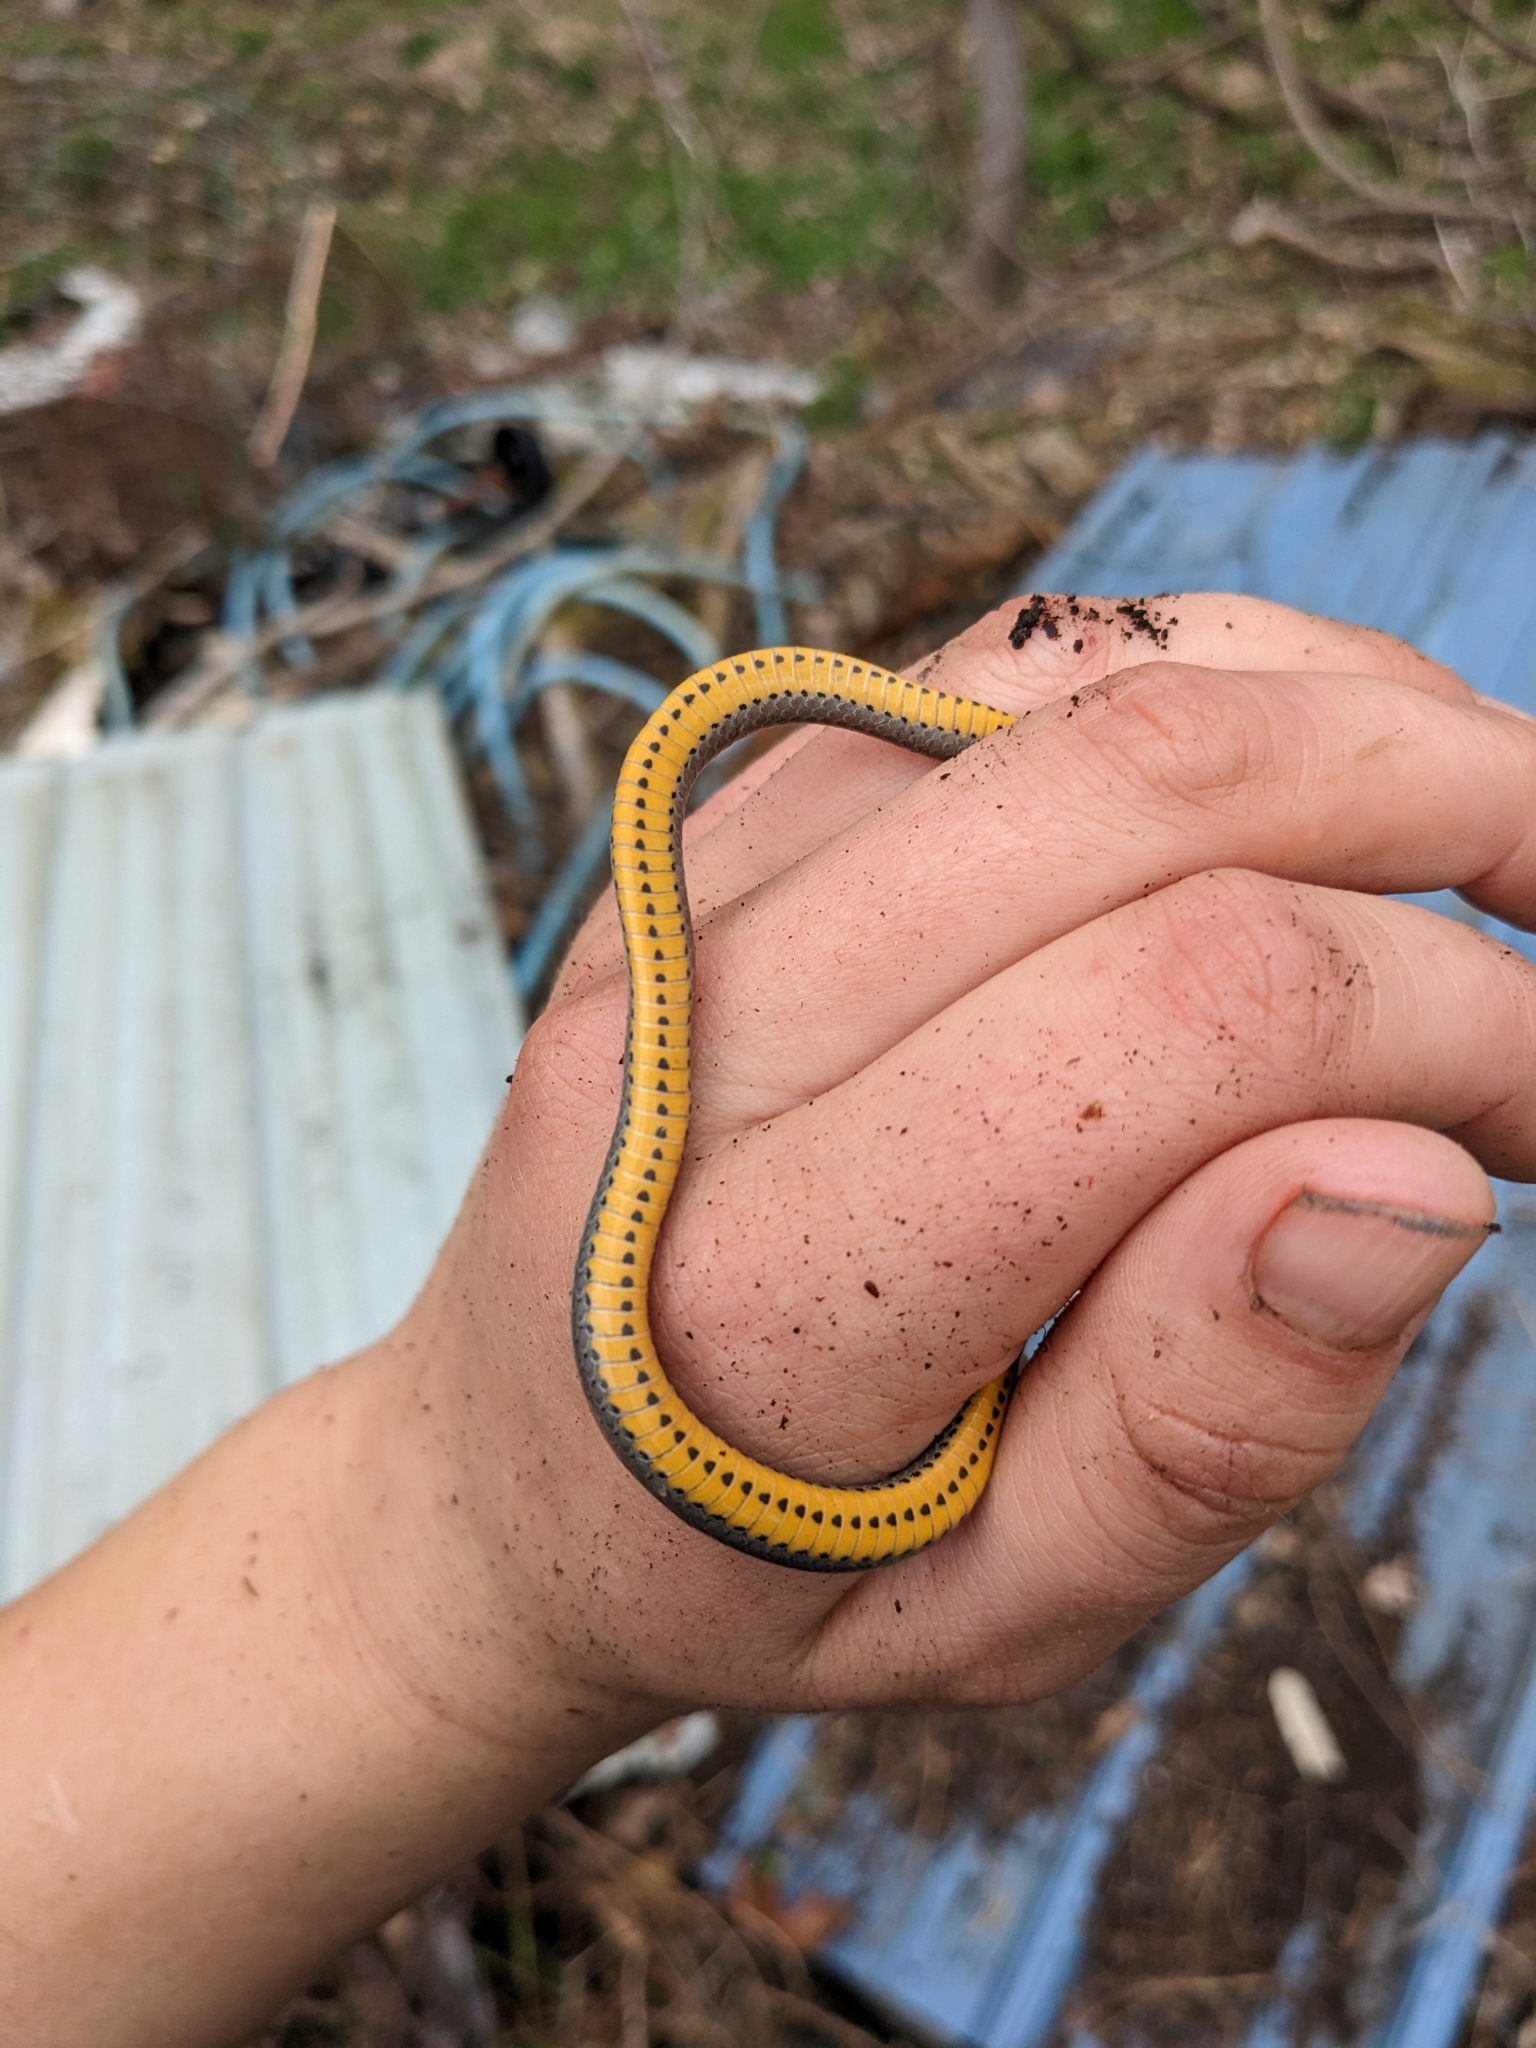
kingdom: Animalia
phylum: Chordata
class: Squamata
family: Colubridae
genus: Diadophis
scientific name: Diadophis punctatus
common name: Ringneck snake
